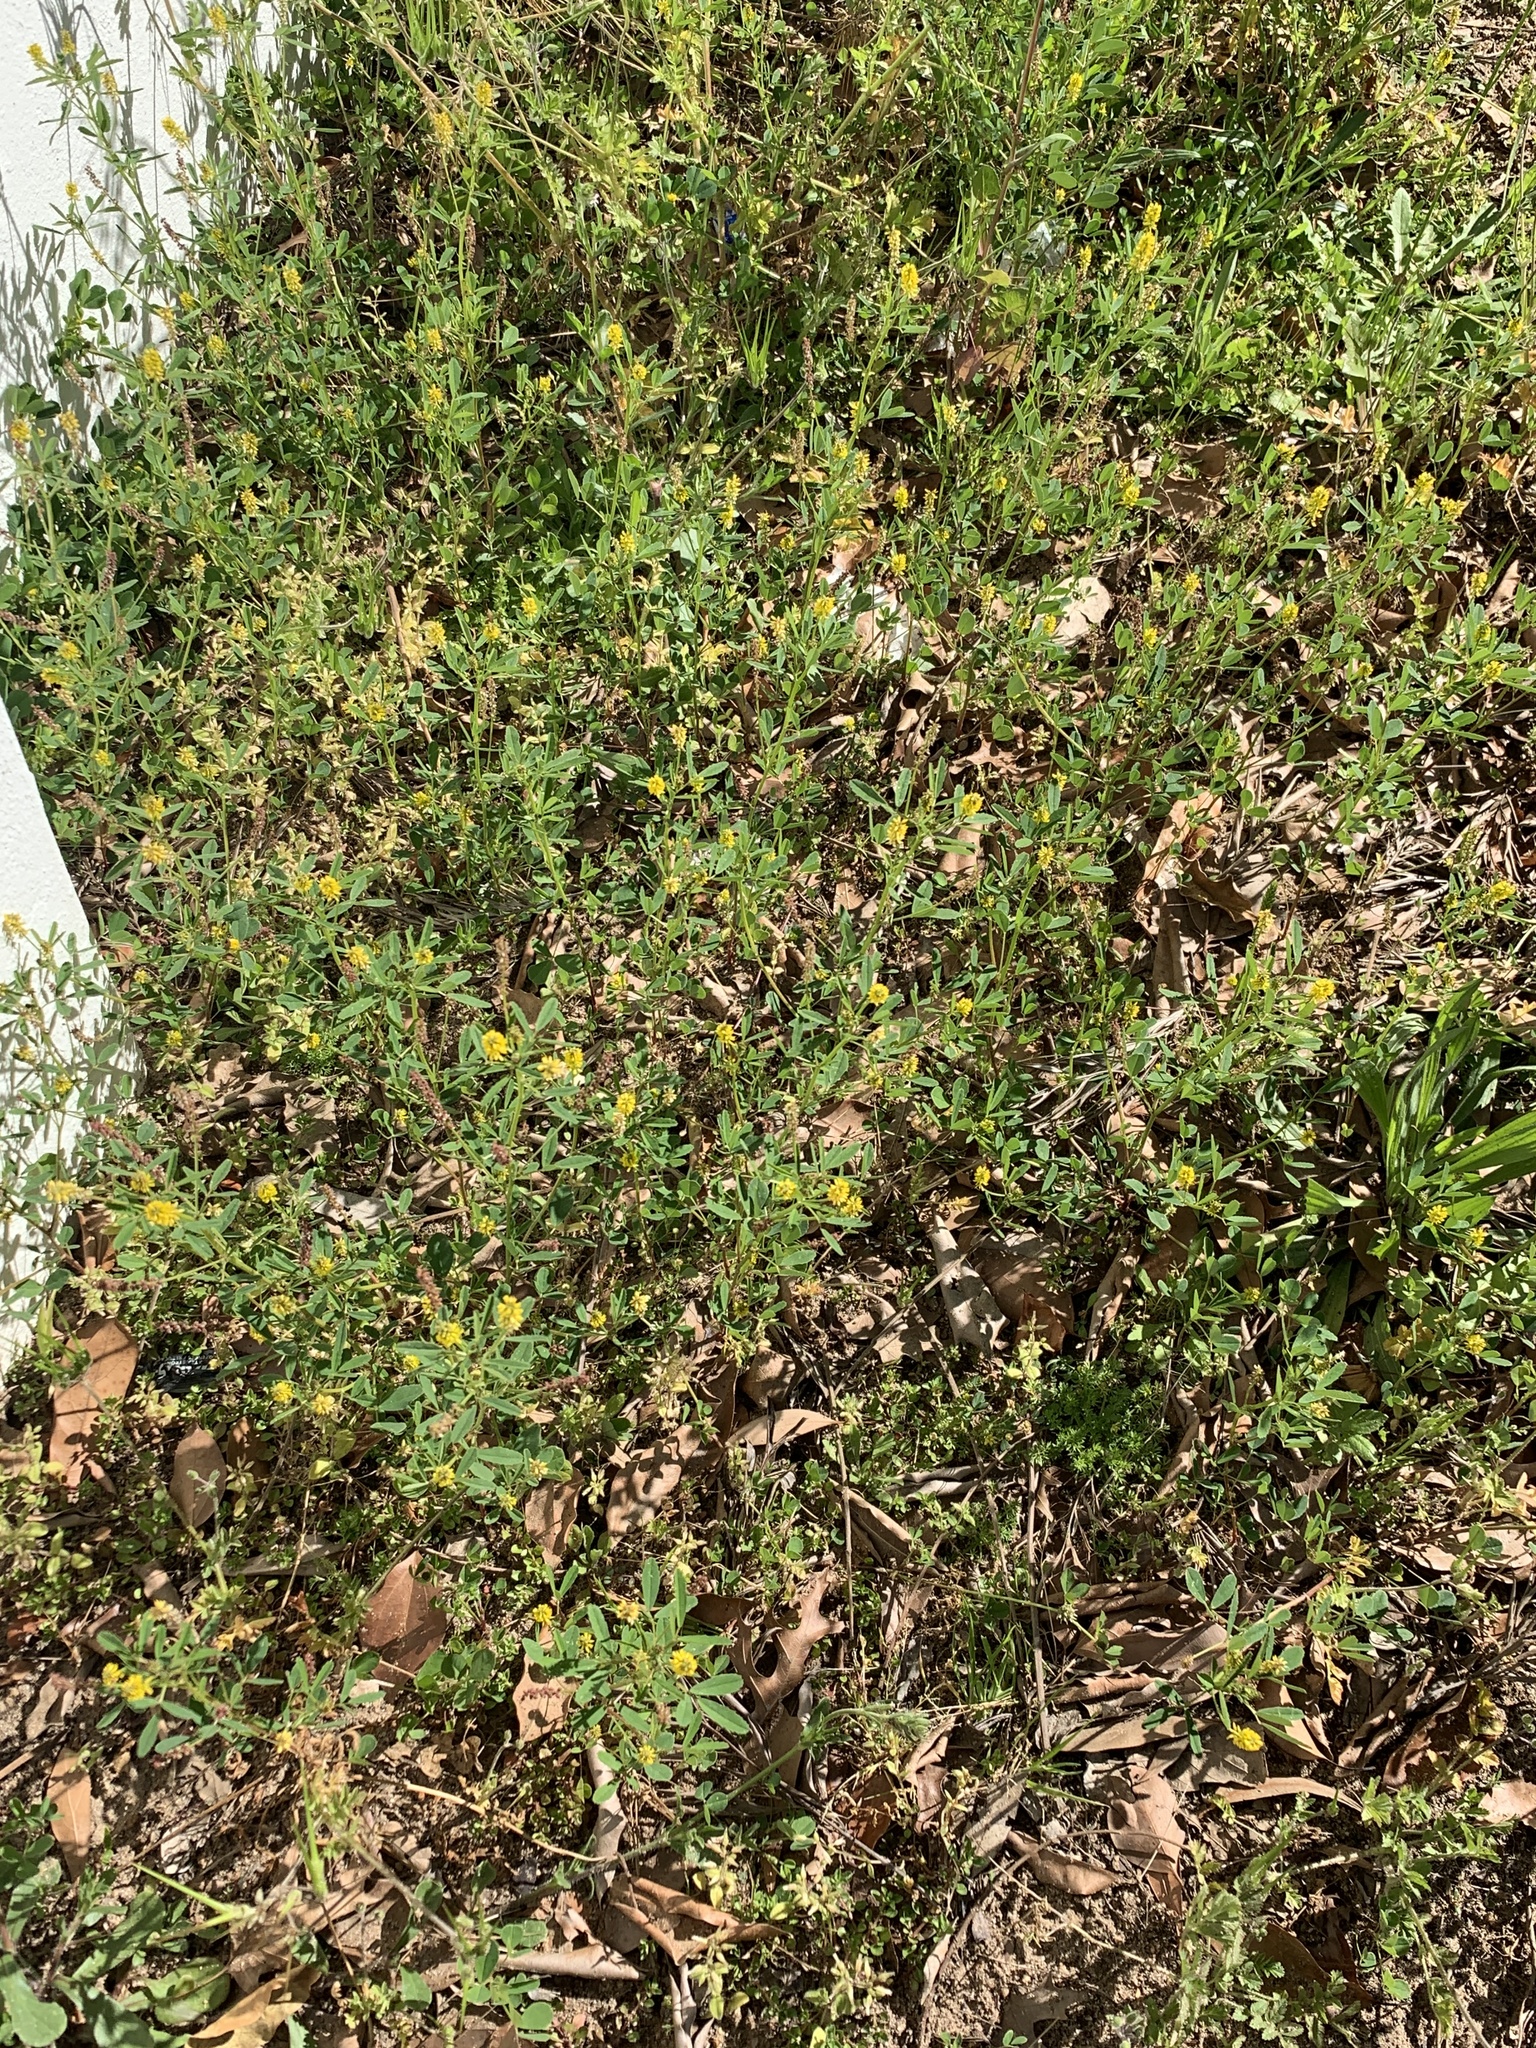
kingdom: Plantae
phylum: Tracheophyta
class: Magnoliopsida
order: Fabales
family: Fabaceae
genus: Melilotus
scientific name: Melilotus indicus
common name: Small melilot
